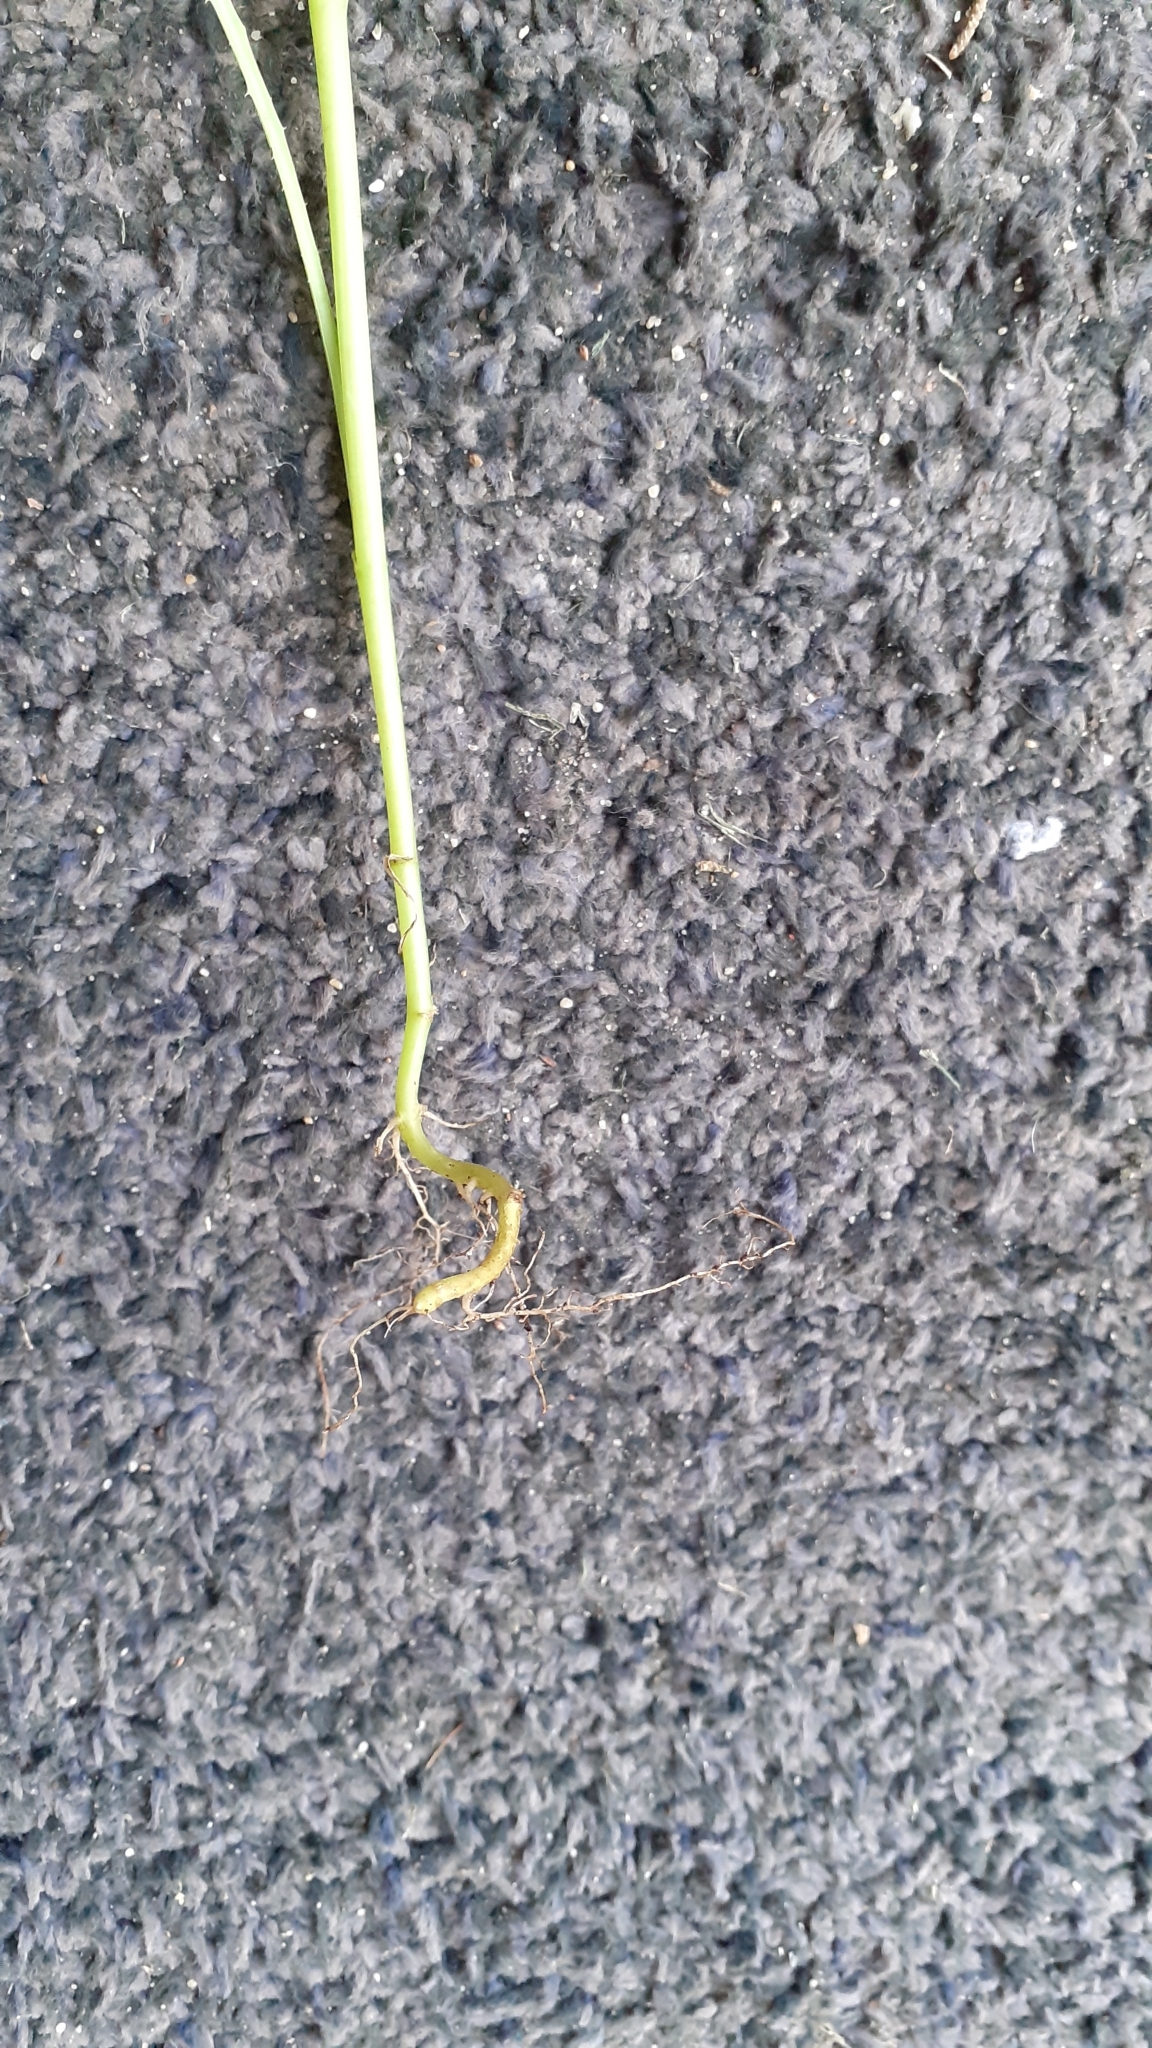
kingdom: Plantae
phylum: Tracheophyta
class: Magnoliopsida
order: Asterales
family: Asteraceae
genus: Sonchus
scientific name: Sonchus oleraceus
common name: Common sowthistle
